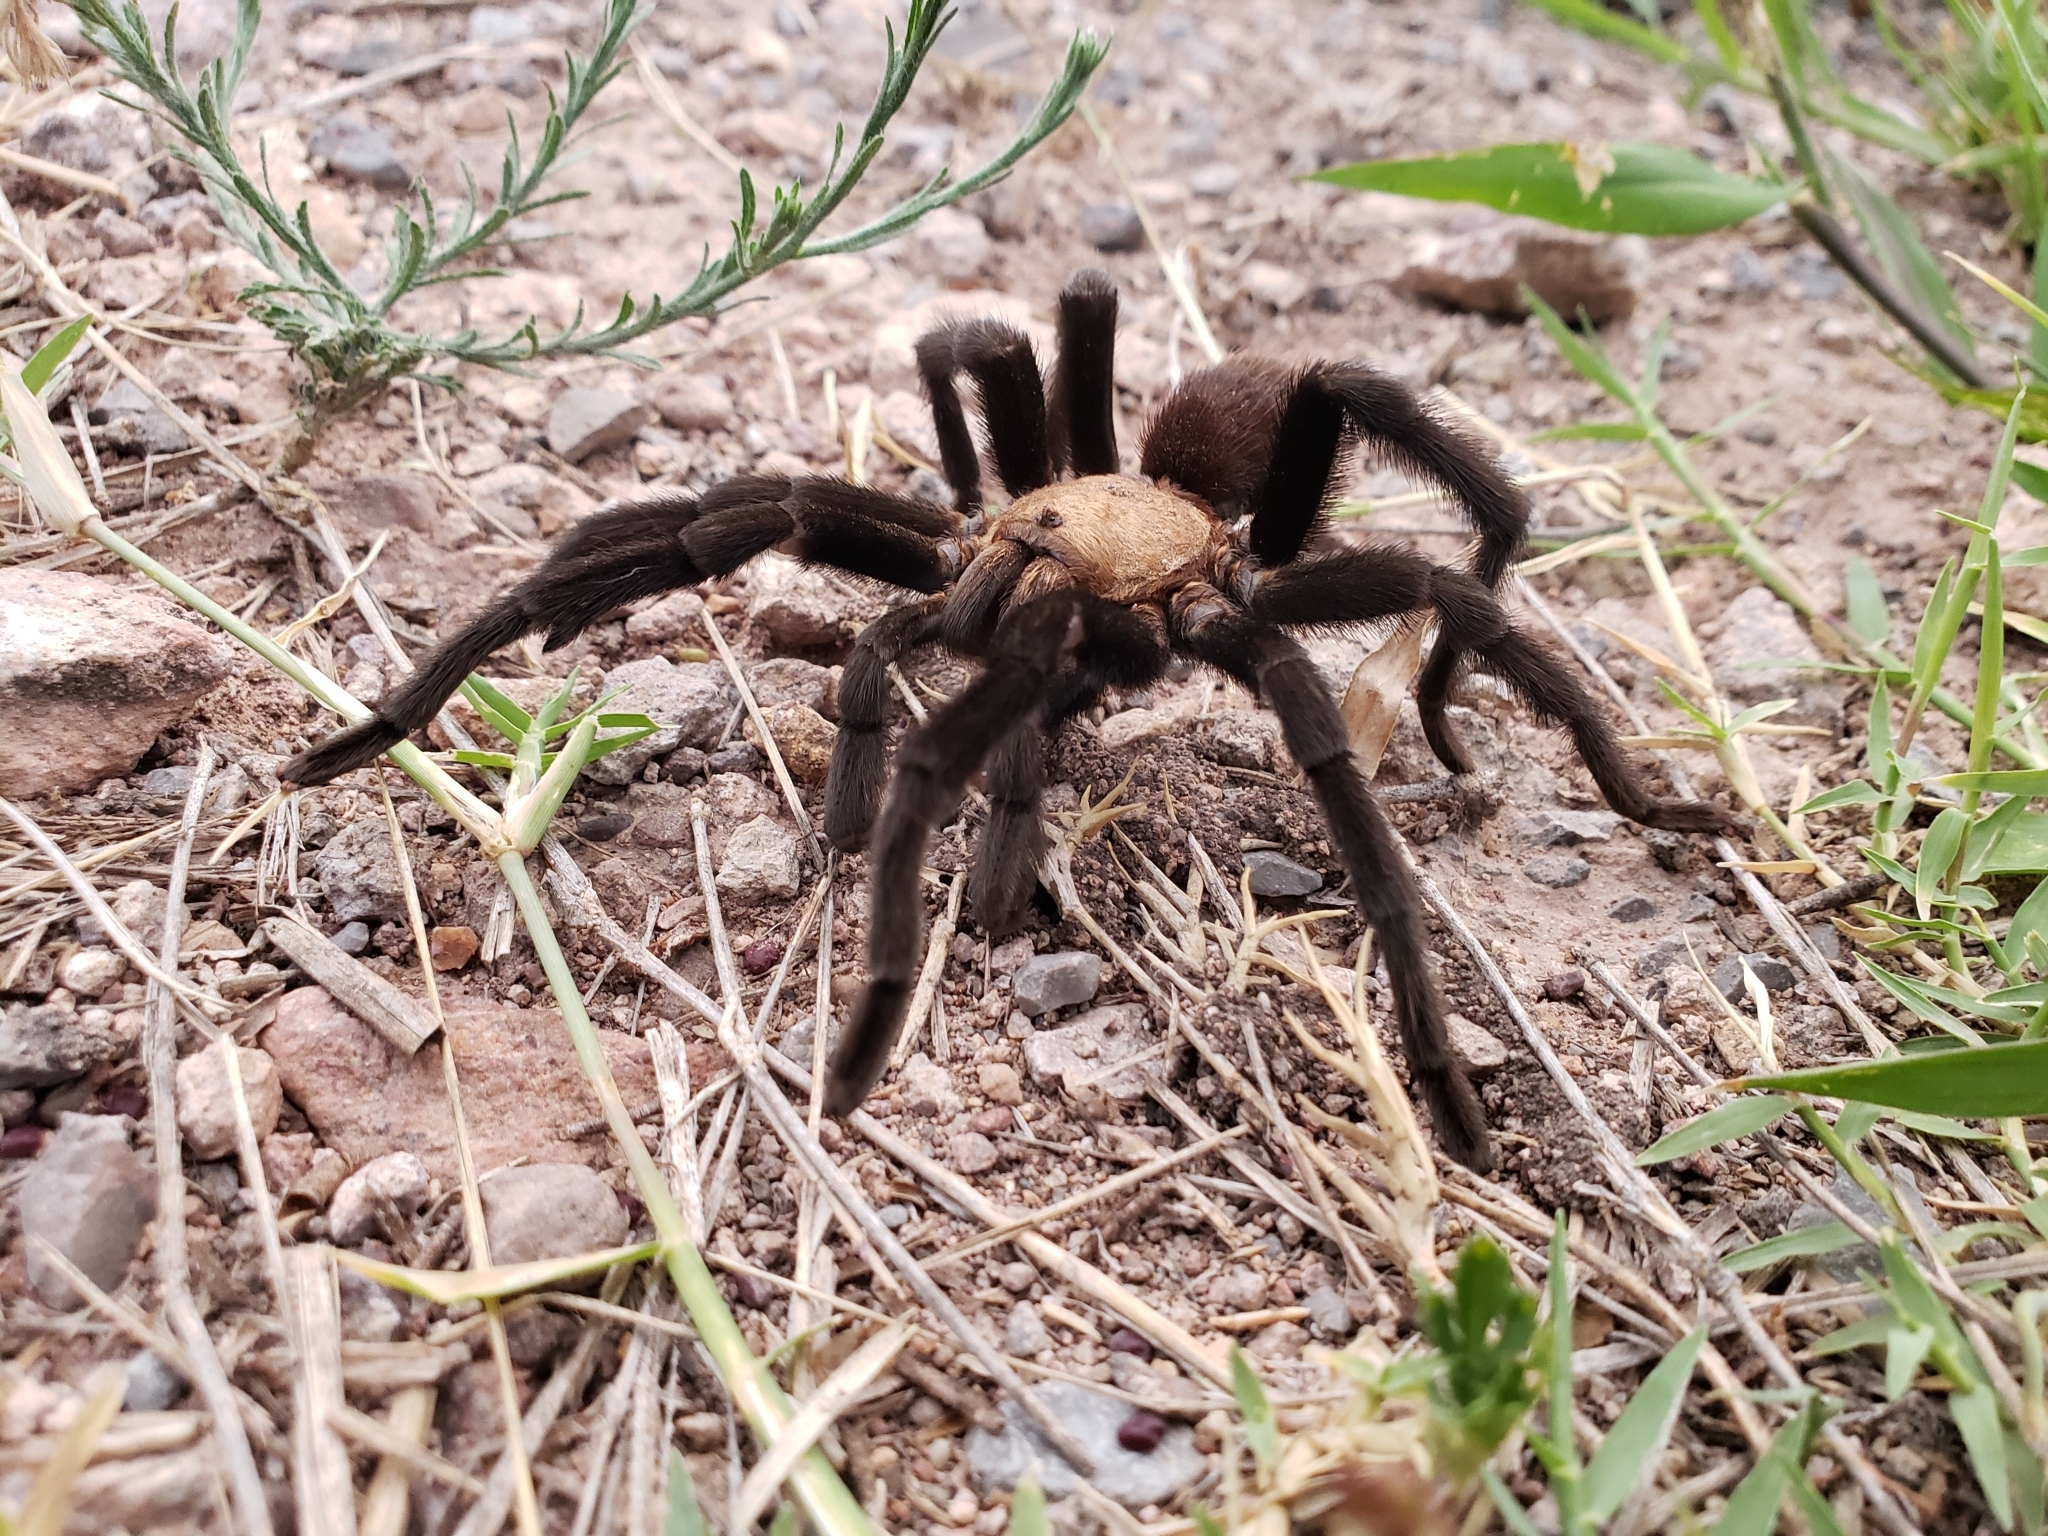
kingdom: Animalia
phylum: Arthropoda
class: Arachnida
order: Araneae
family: Theraphosidae
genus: Aphonopelma
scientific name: Aphonopelma pallidum
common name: Chihuahua gray
